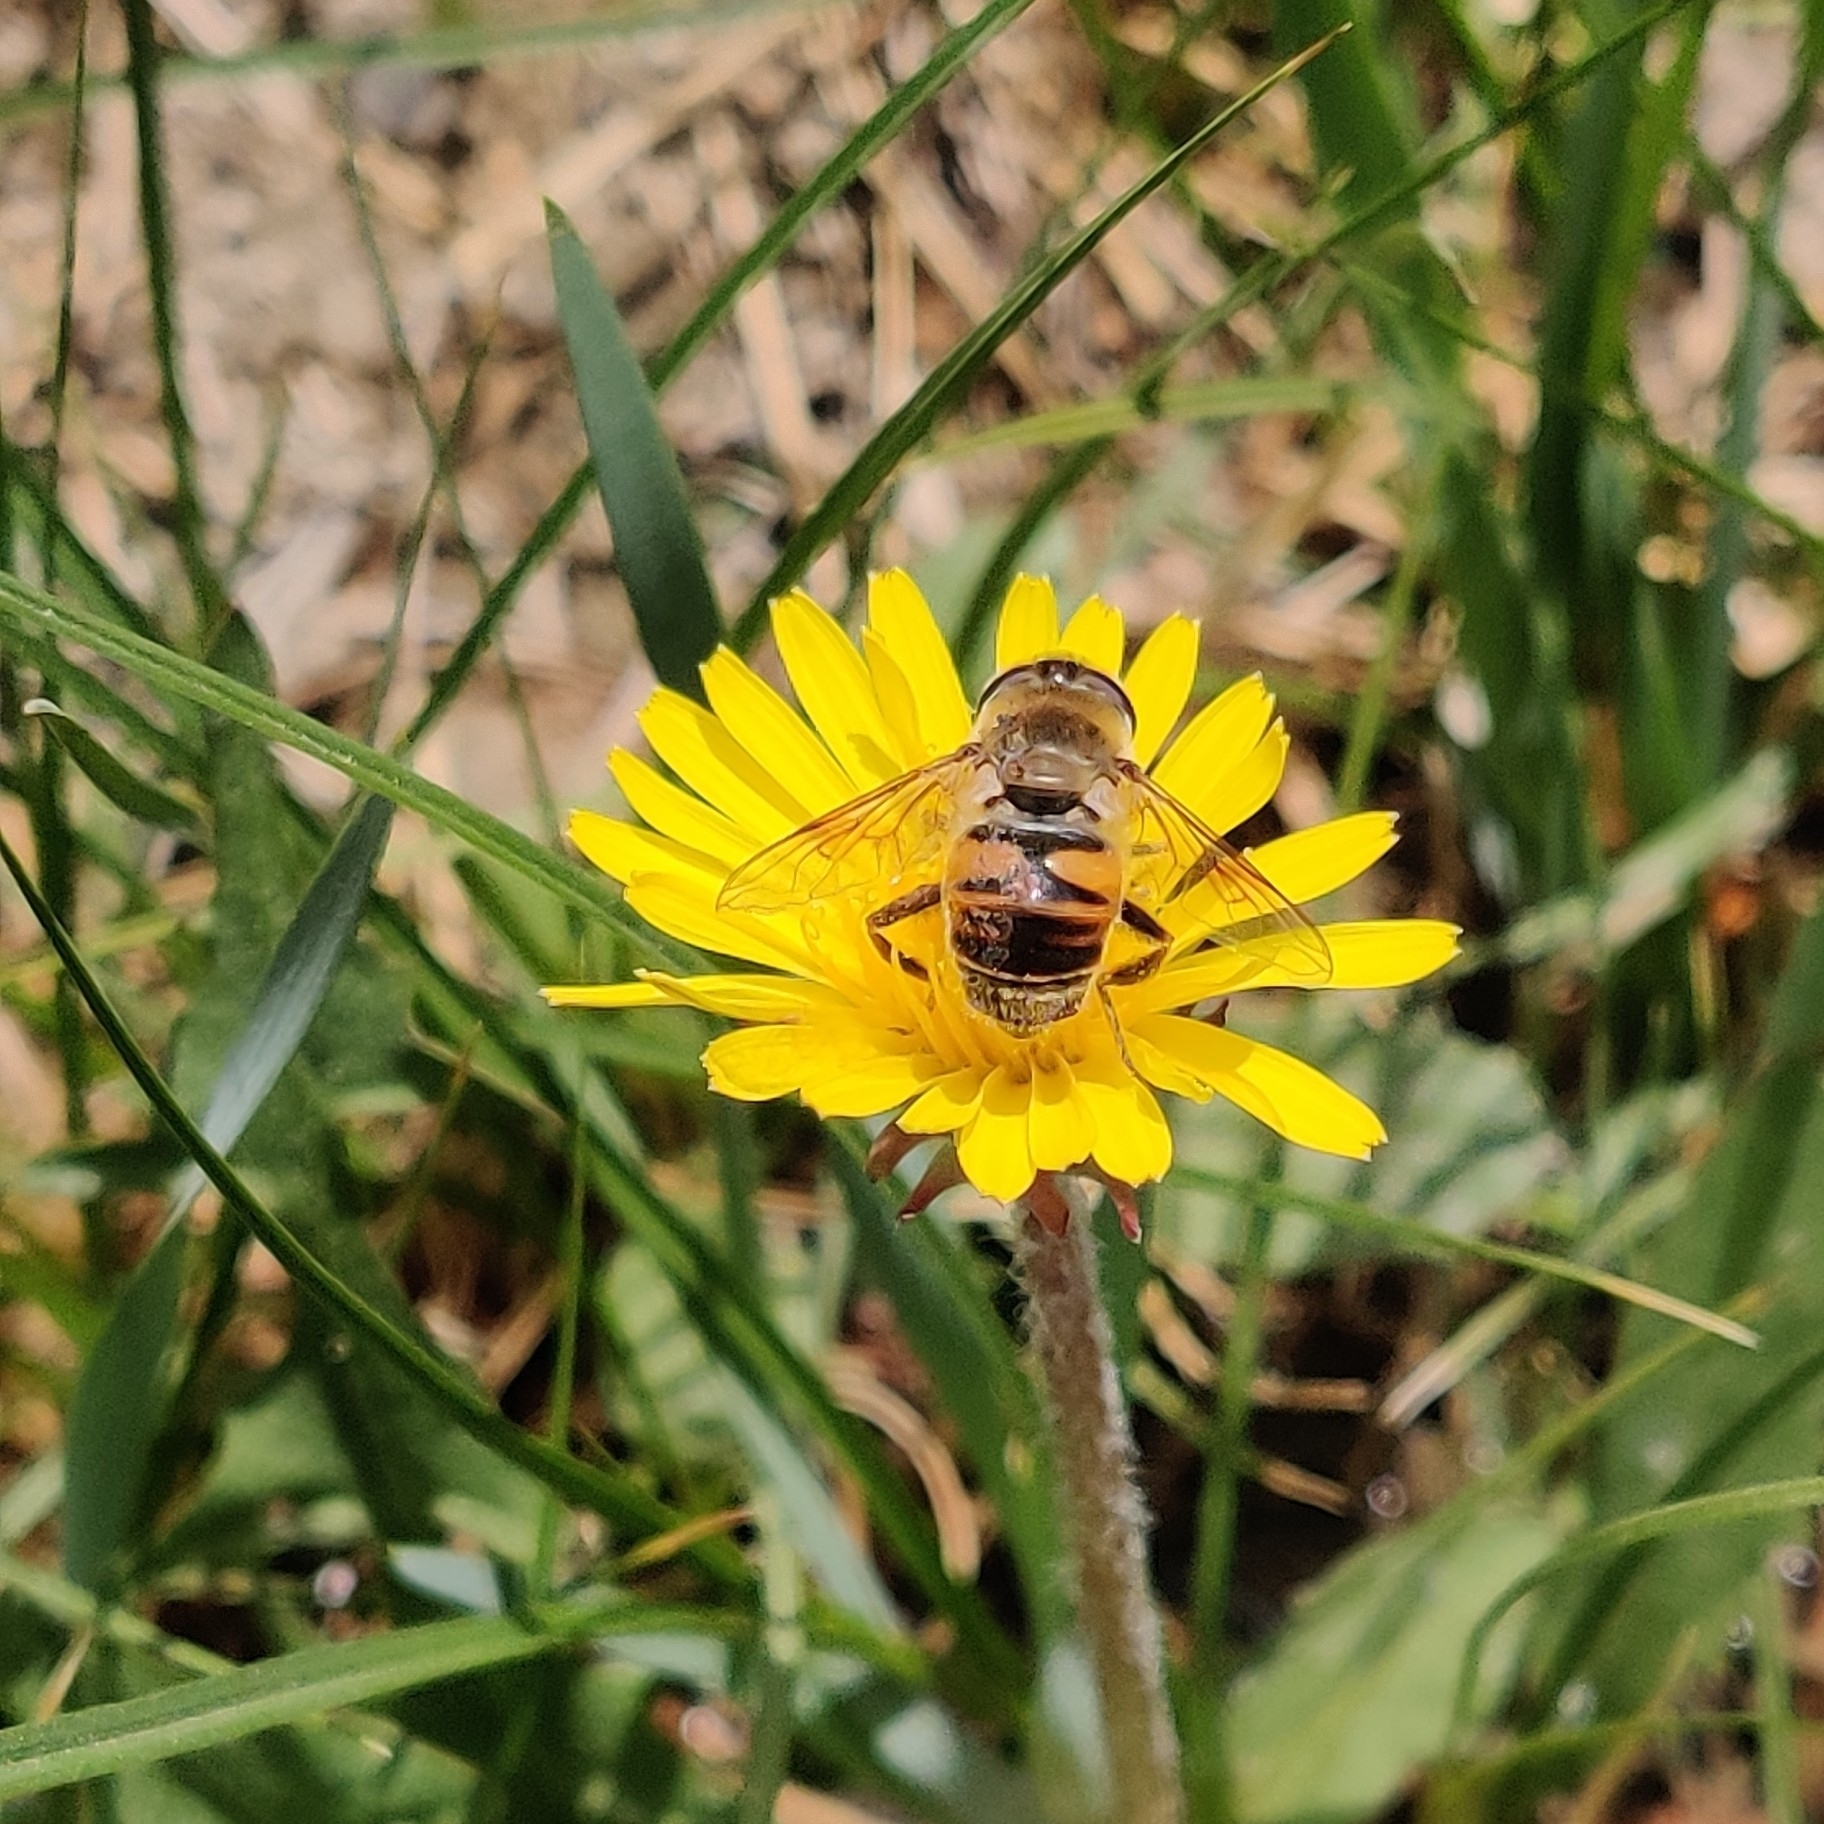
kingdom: Animalia
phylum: Arthropoda
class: Insecta
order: Diptera
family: Syrphidae
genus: Eristalis
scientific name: Eristalis tenax
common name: Drone fly
